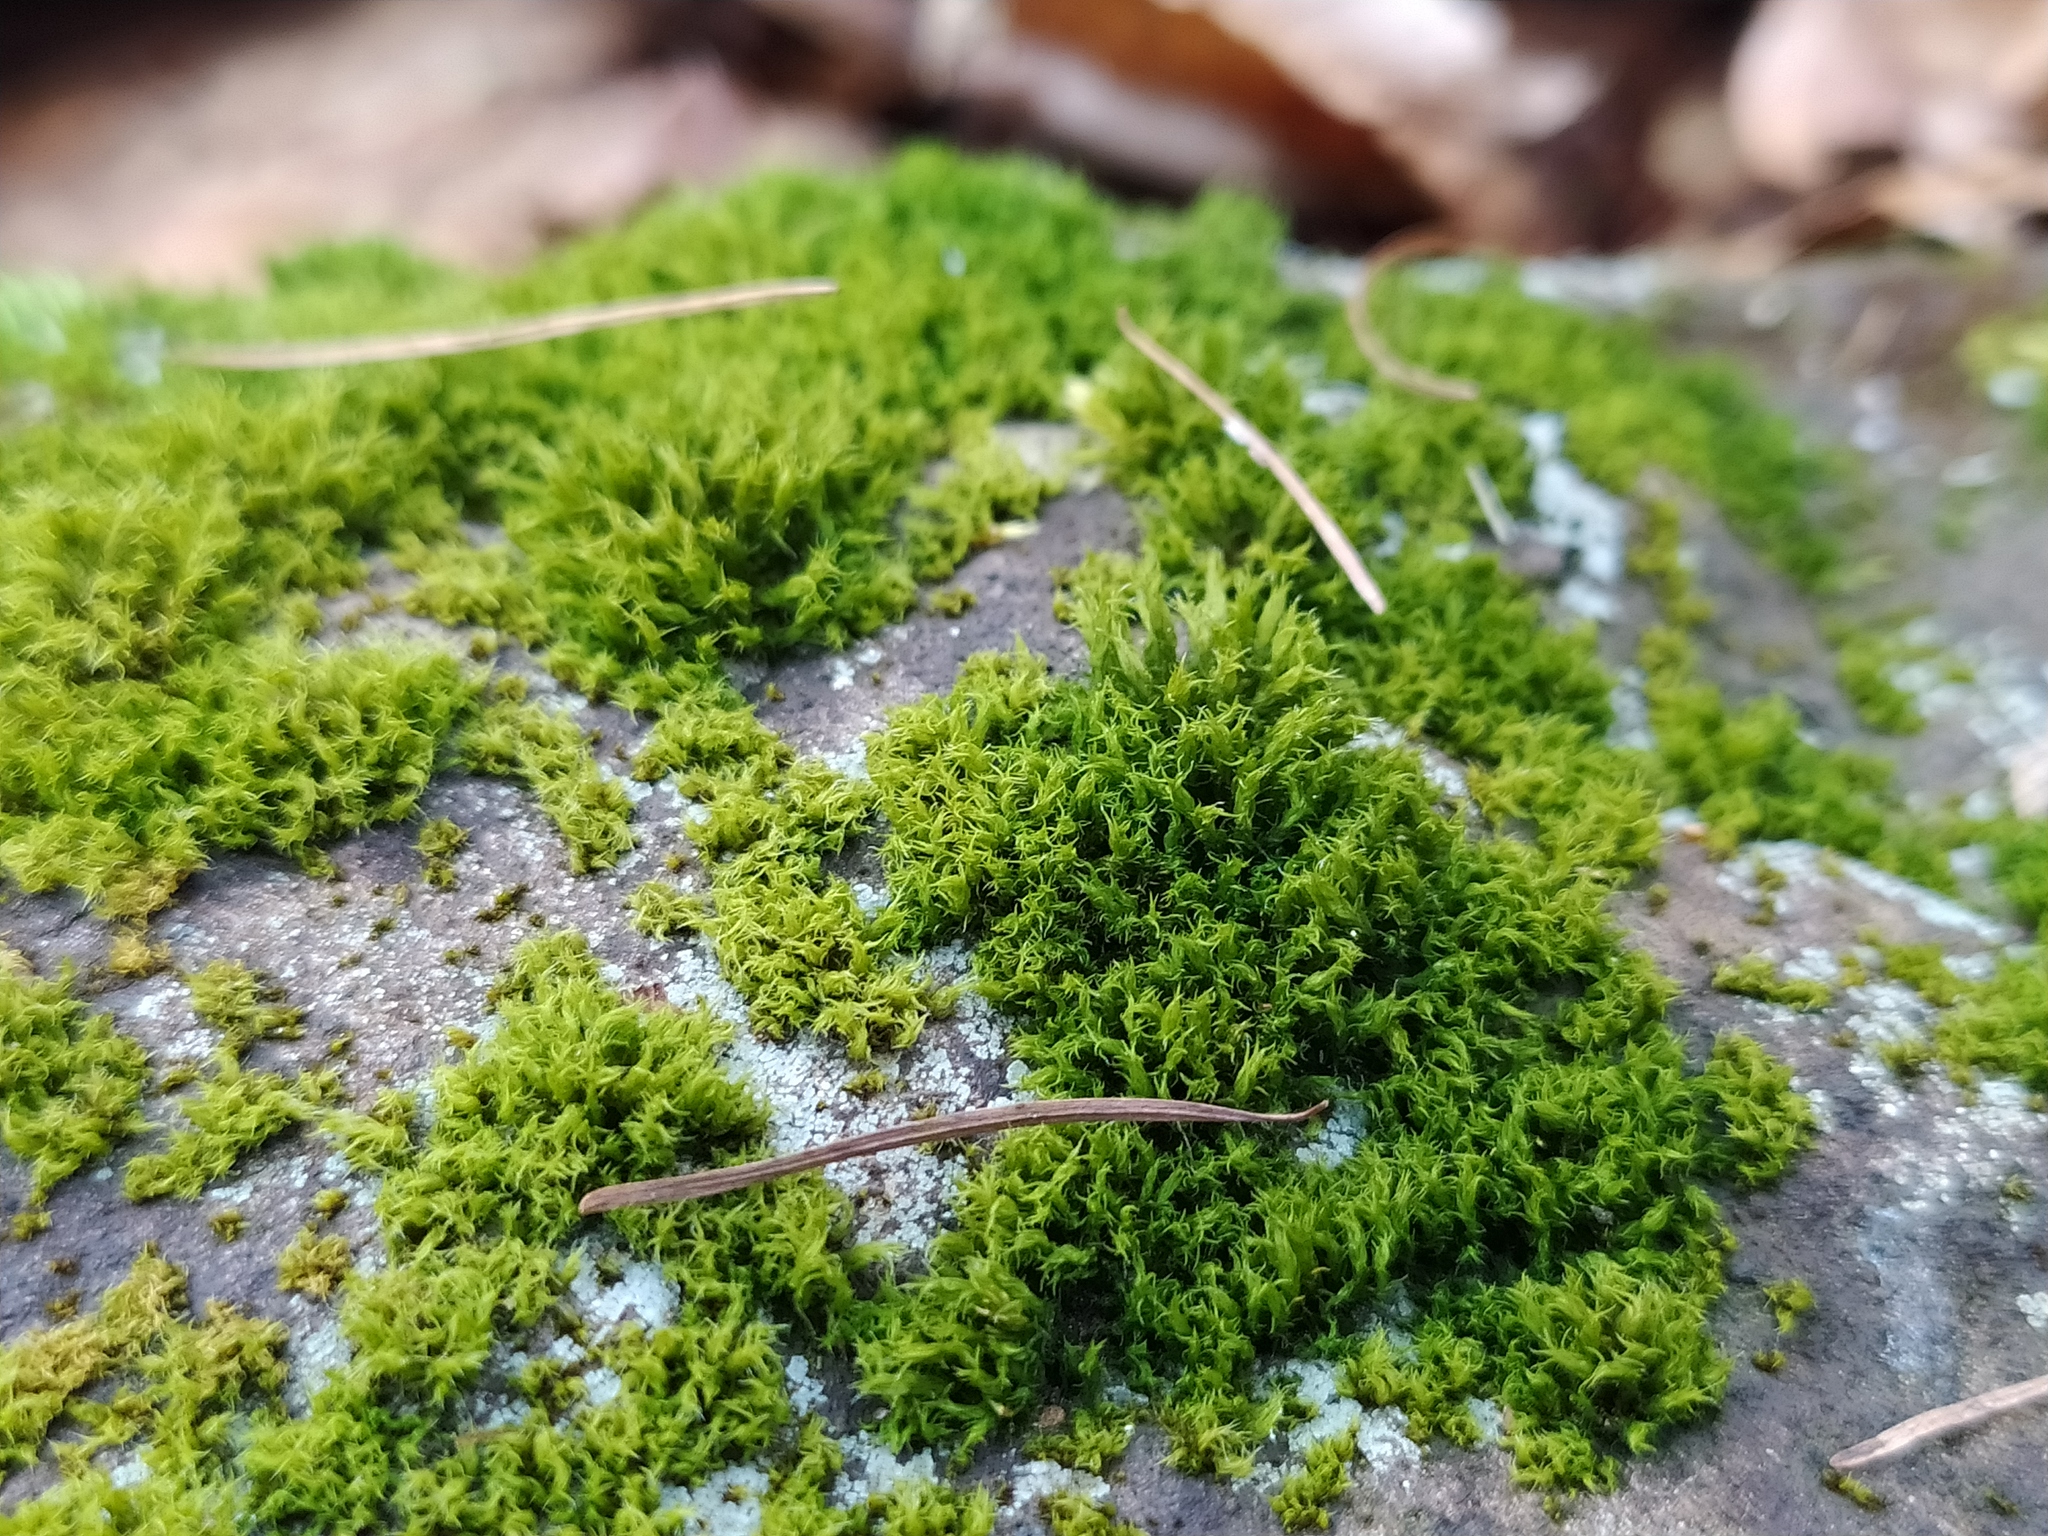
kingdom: Plantae
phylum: Bryophyta
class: Bryopsida
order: Grimmiales
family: Grimmiaceae
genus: Grimmia
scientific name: Grimmia hartmanii
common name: Hartman's grimmia
